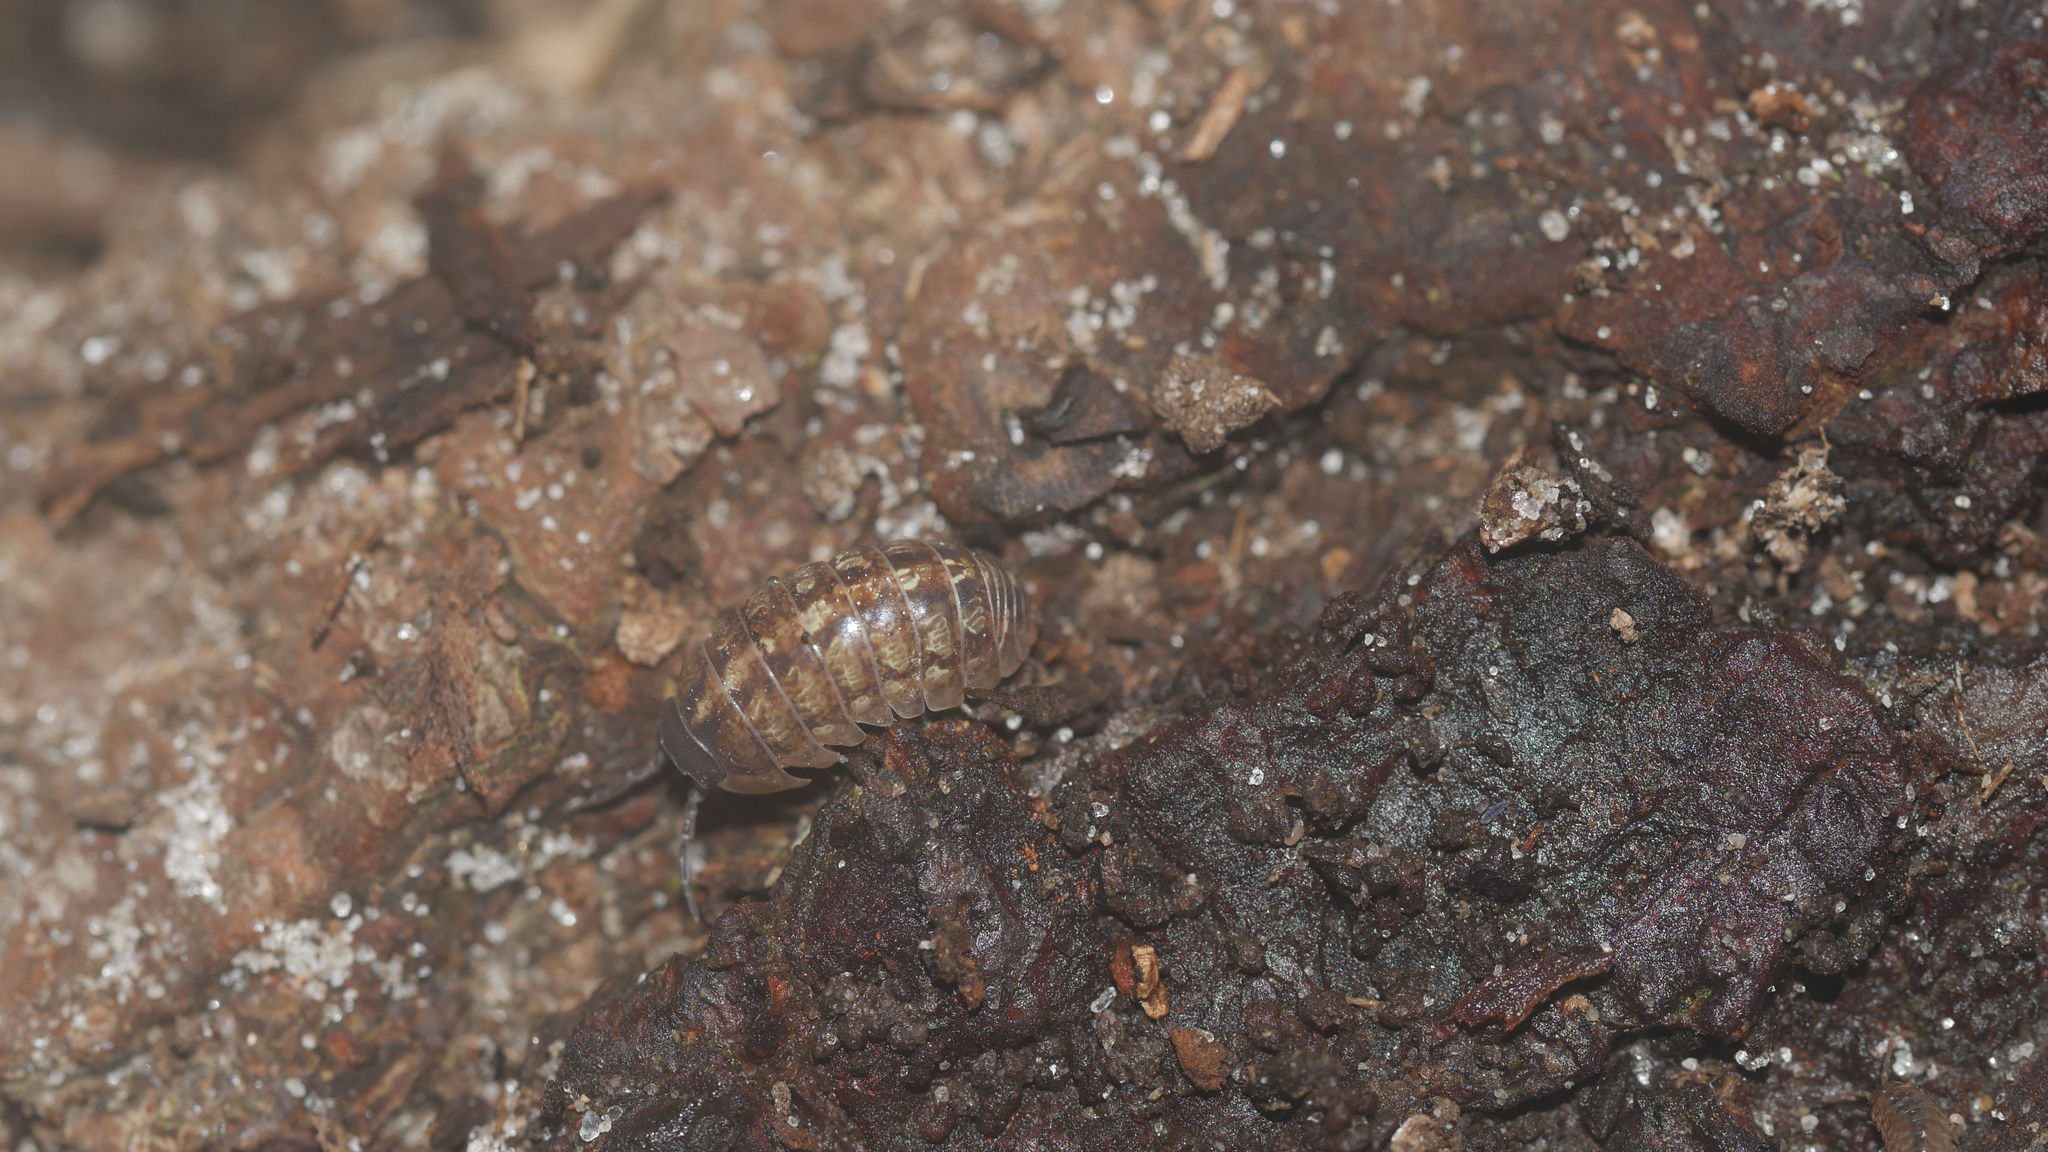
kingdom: Animalia
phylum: Arthropoda
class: Malacostraca
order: Isopoda
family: Armadillidiidae
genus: Armadillidium
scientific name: Armadillidium vulgare
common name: Common pill woodlouse
